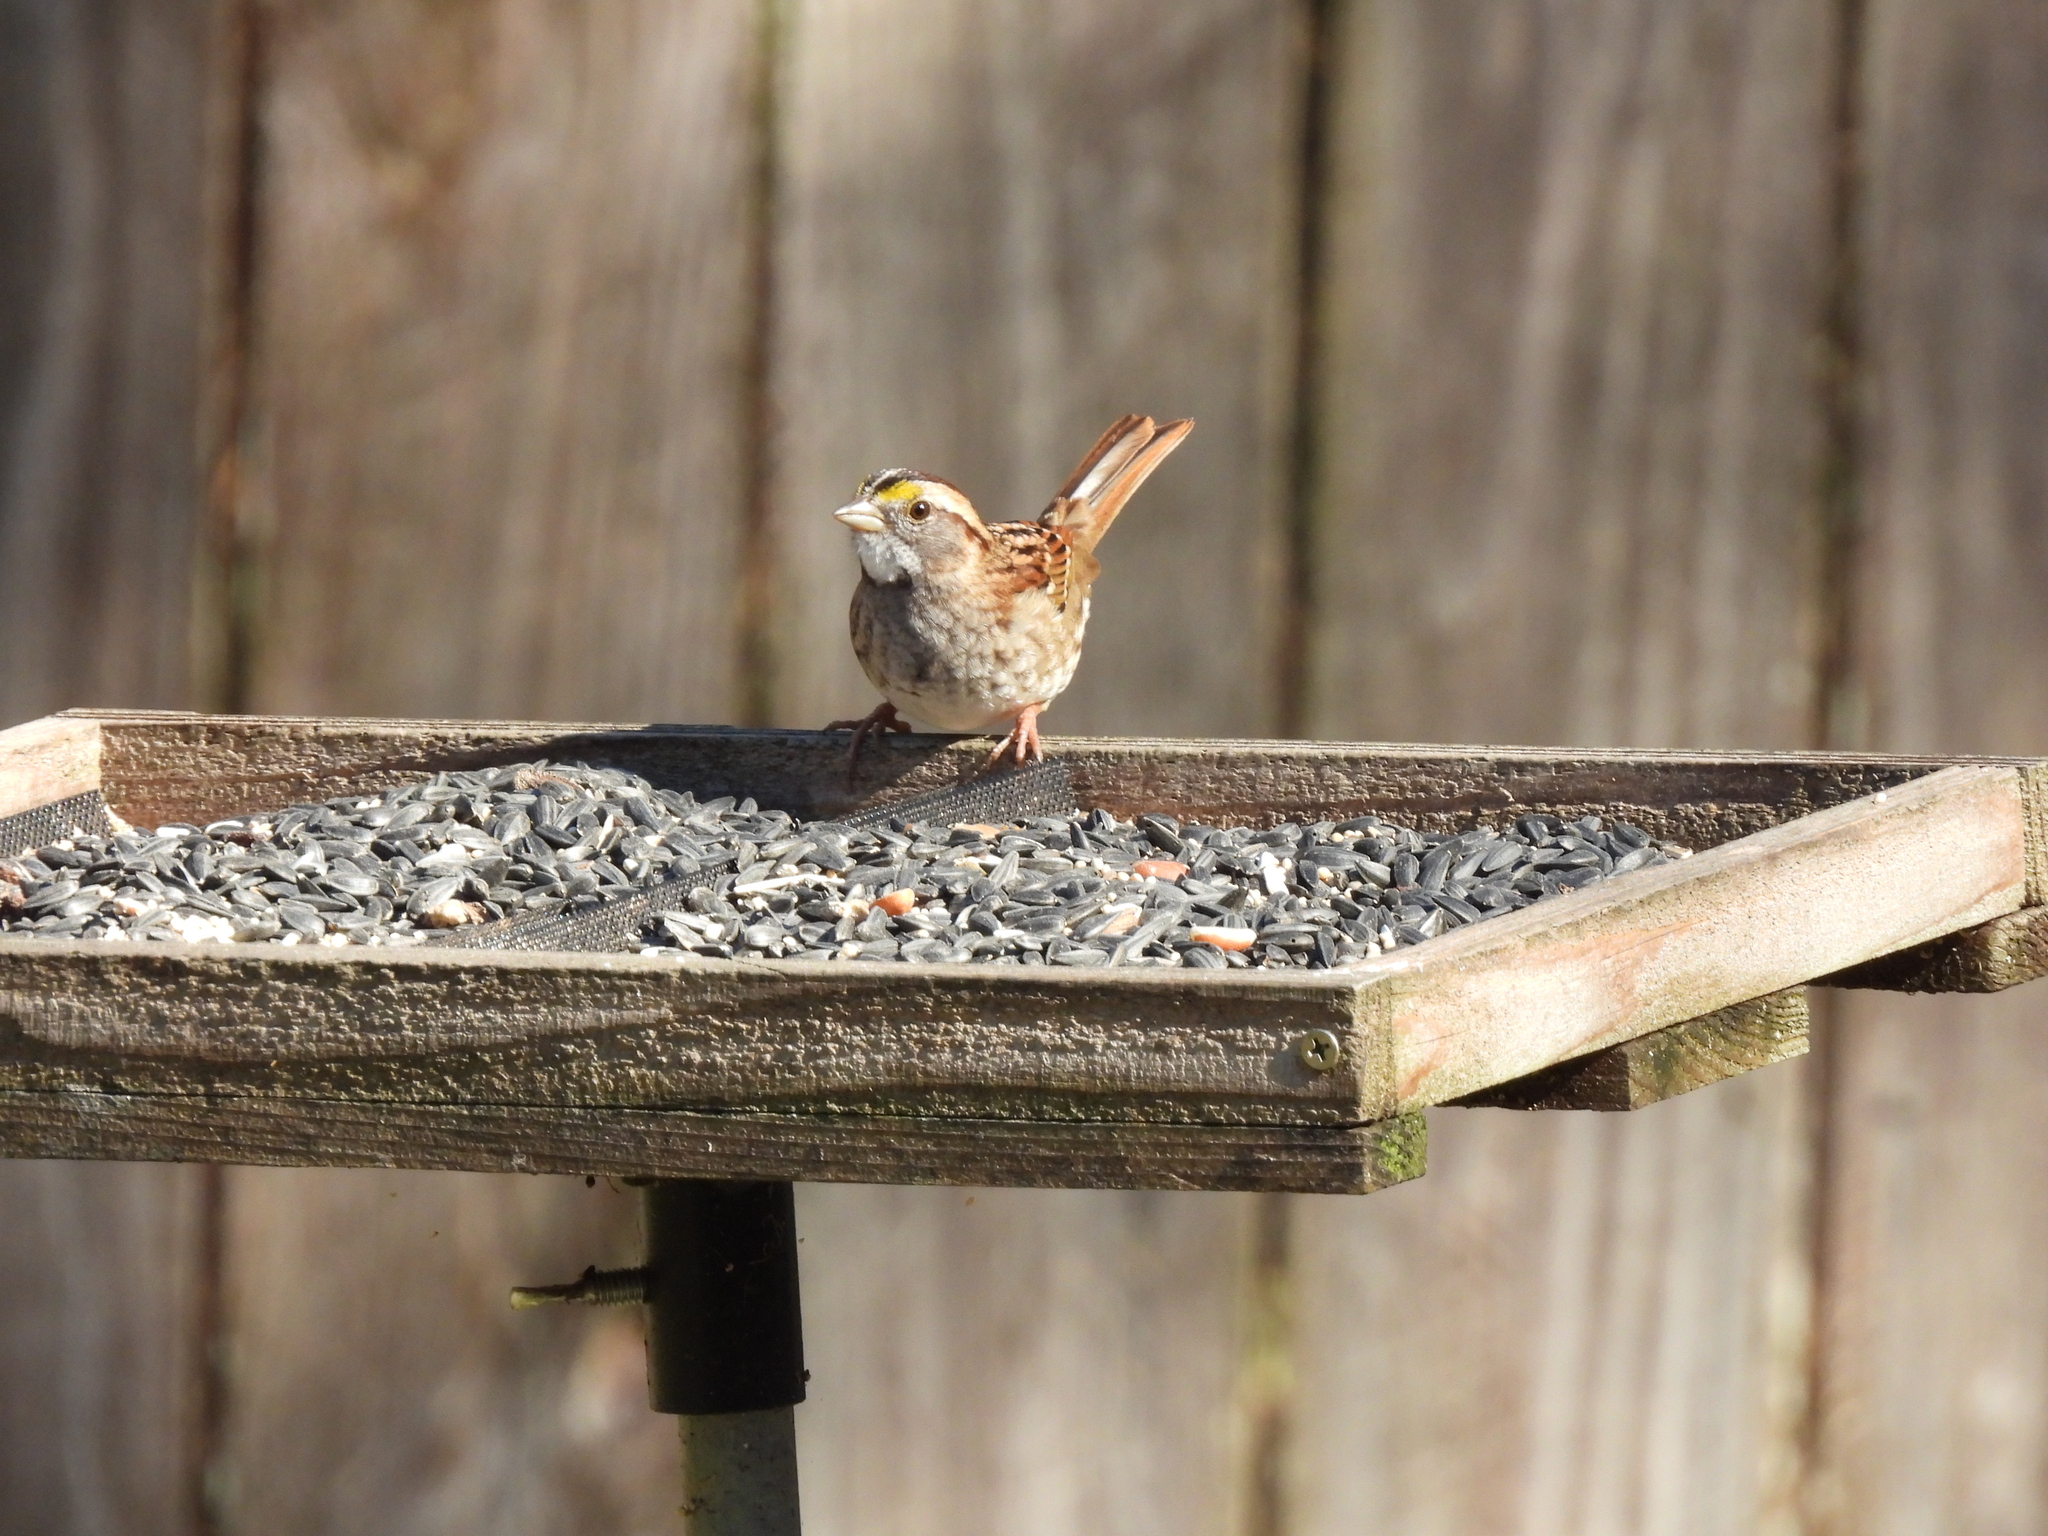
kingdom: Animalia
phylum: Chordata
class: Aves
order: Passeriformes
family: Passerellidae
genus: Zonotrichia
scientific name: Zonotrichia albicollis
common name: White-throated sparrow
